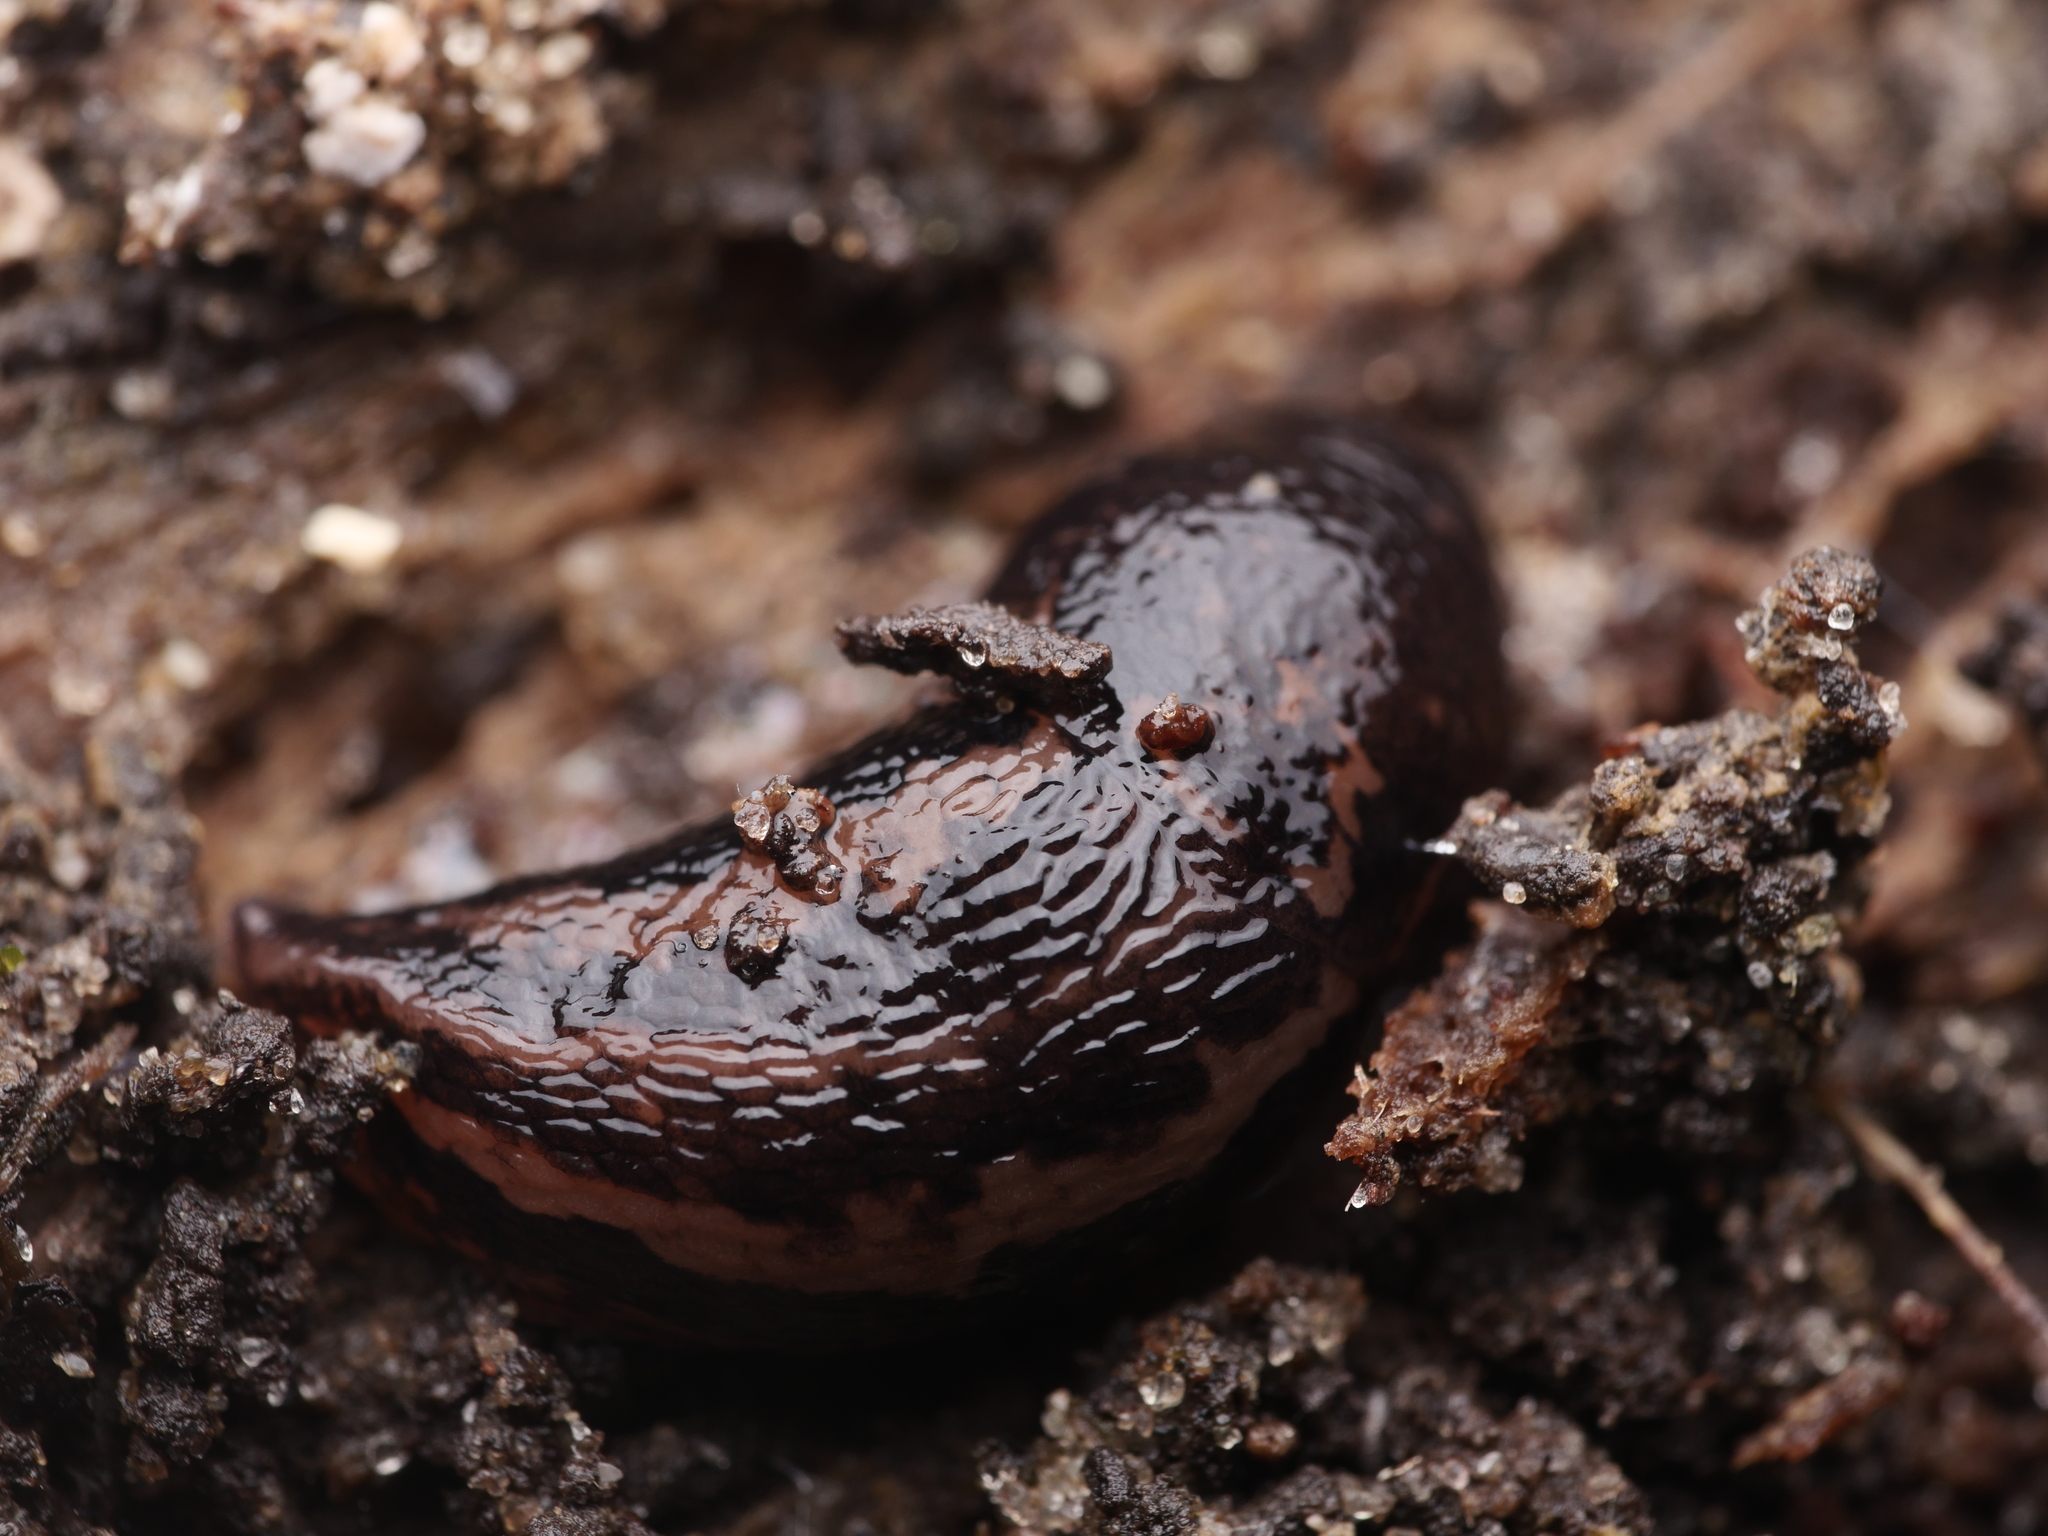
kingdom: Animalia
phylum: Mollusca
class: Gastropoda
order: Stylommatophora
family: Limacidae
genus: Limax
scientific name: Limax maximus
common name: Great grey slug
